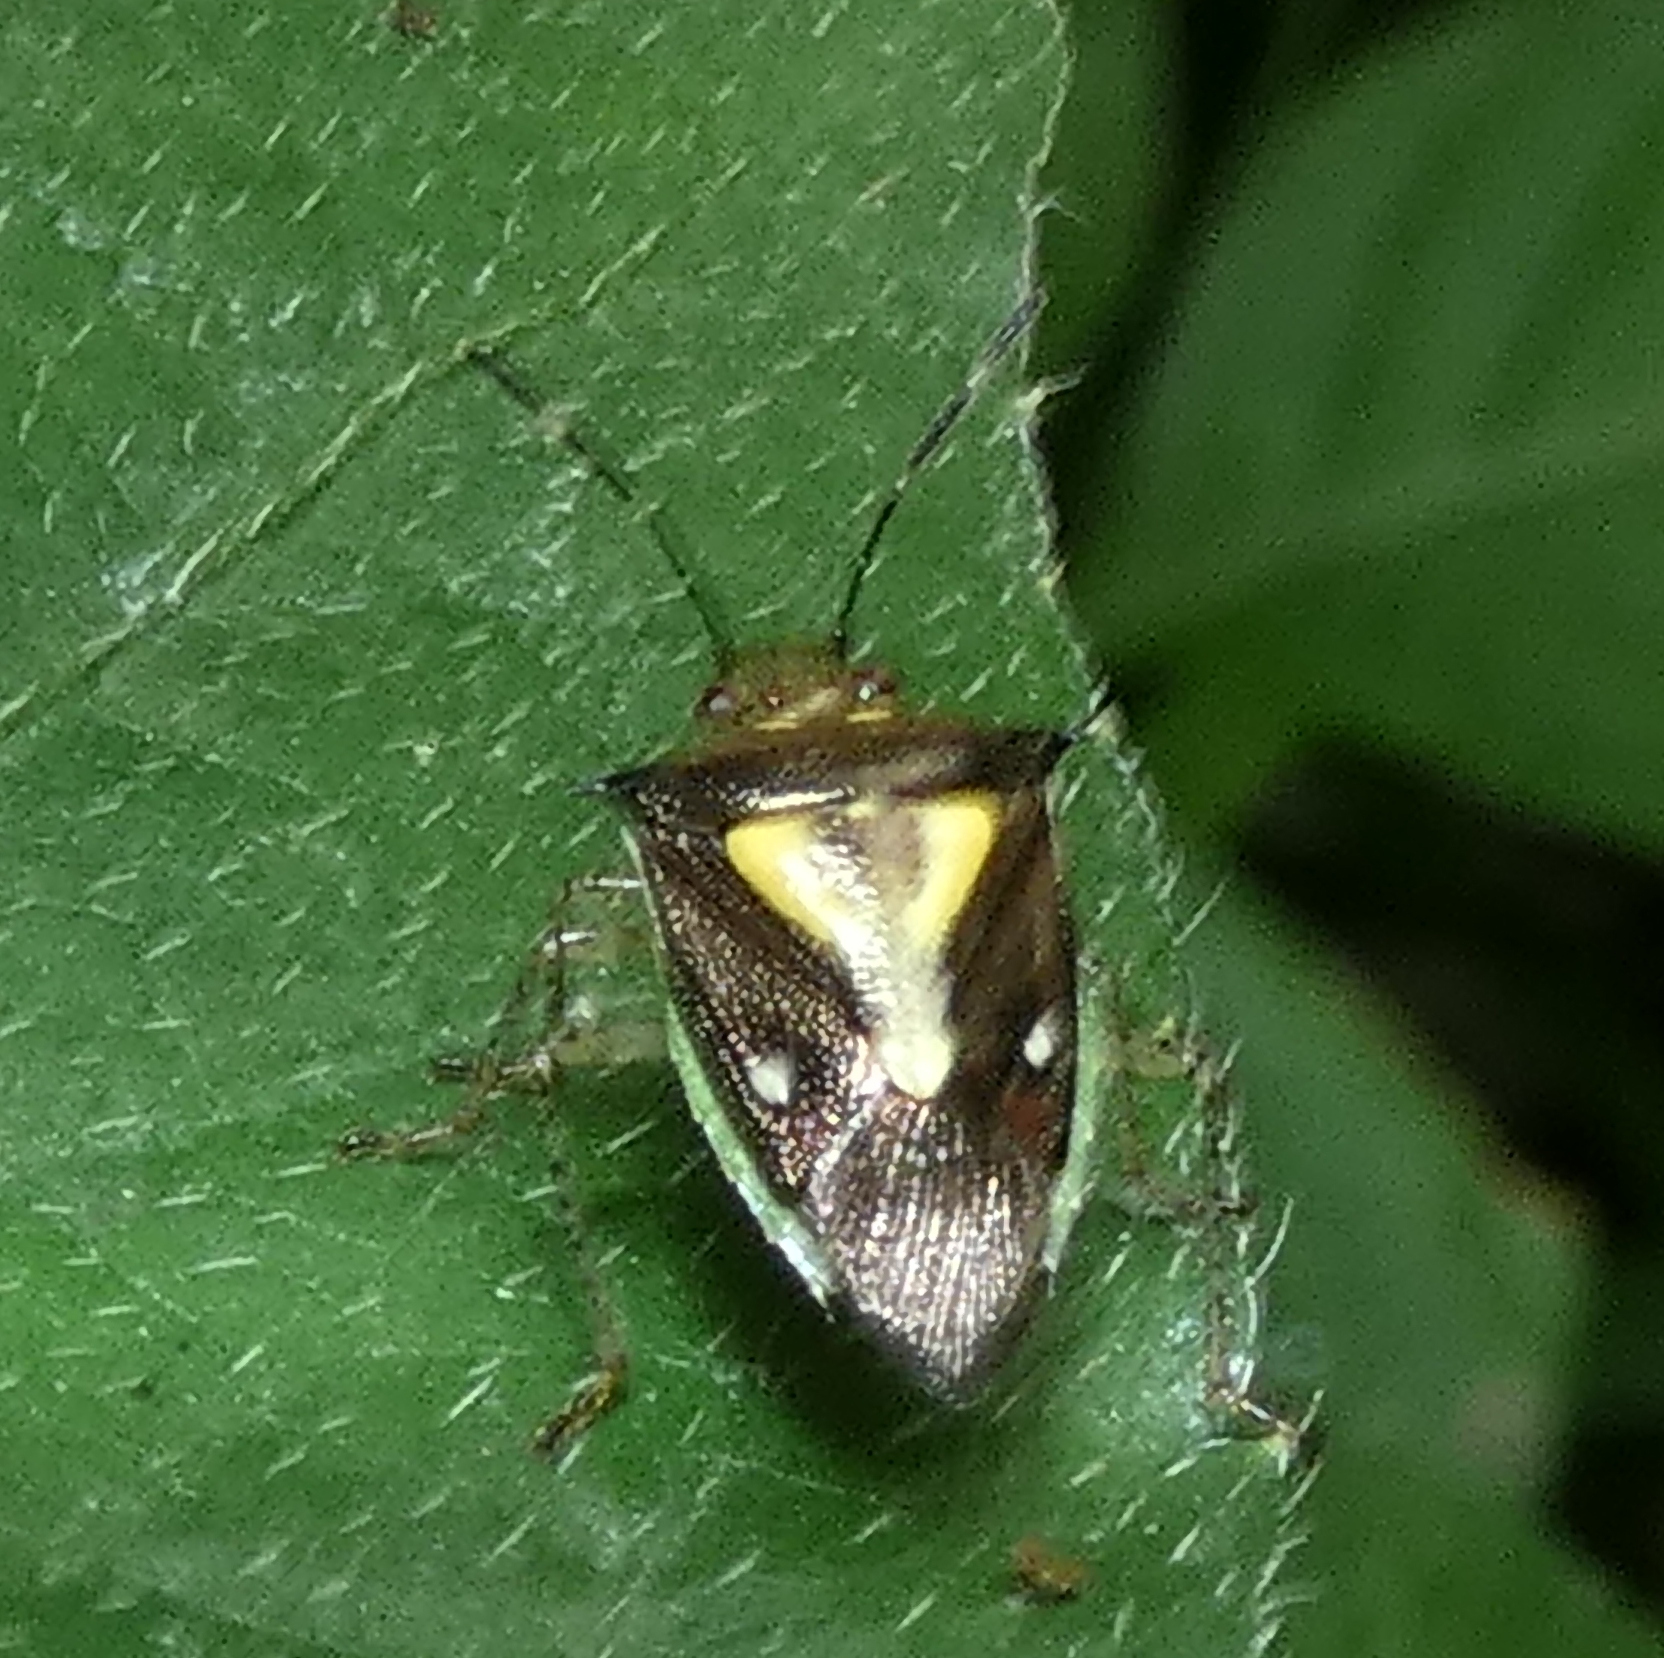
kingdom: Animalia
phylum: Arthropoda
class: Insecta
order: Hemiptera
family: Pentatomidae
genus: Mormidea
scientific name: Mormidea ypsilon
